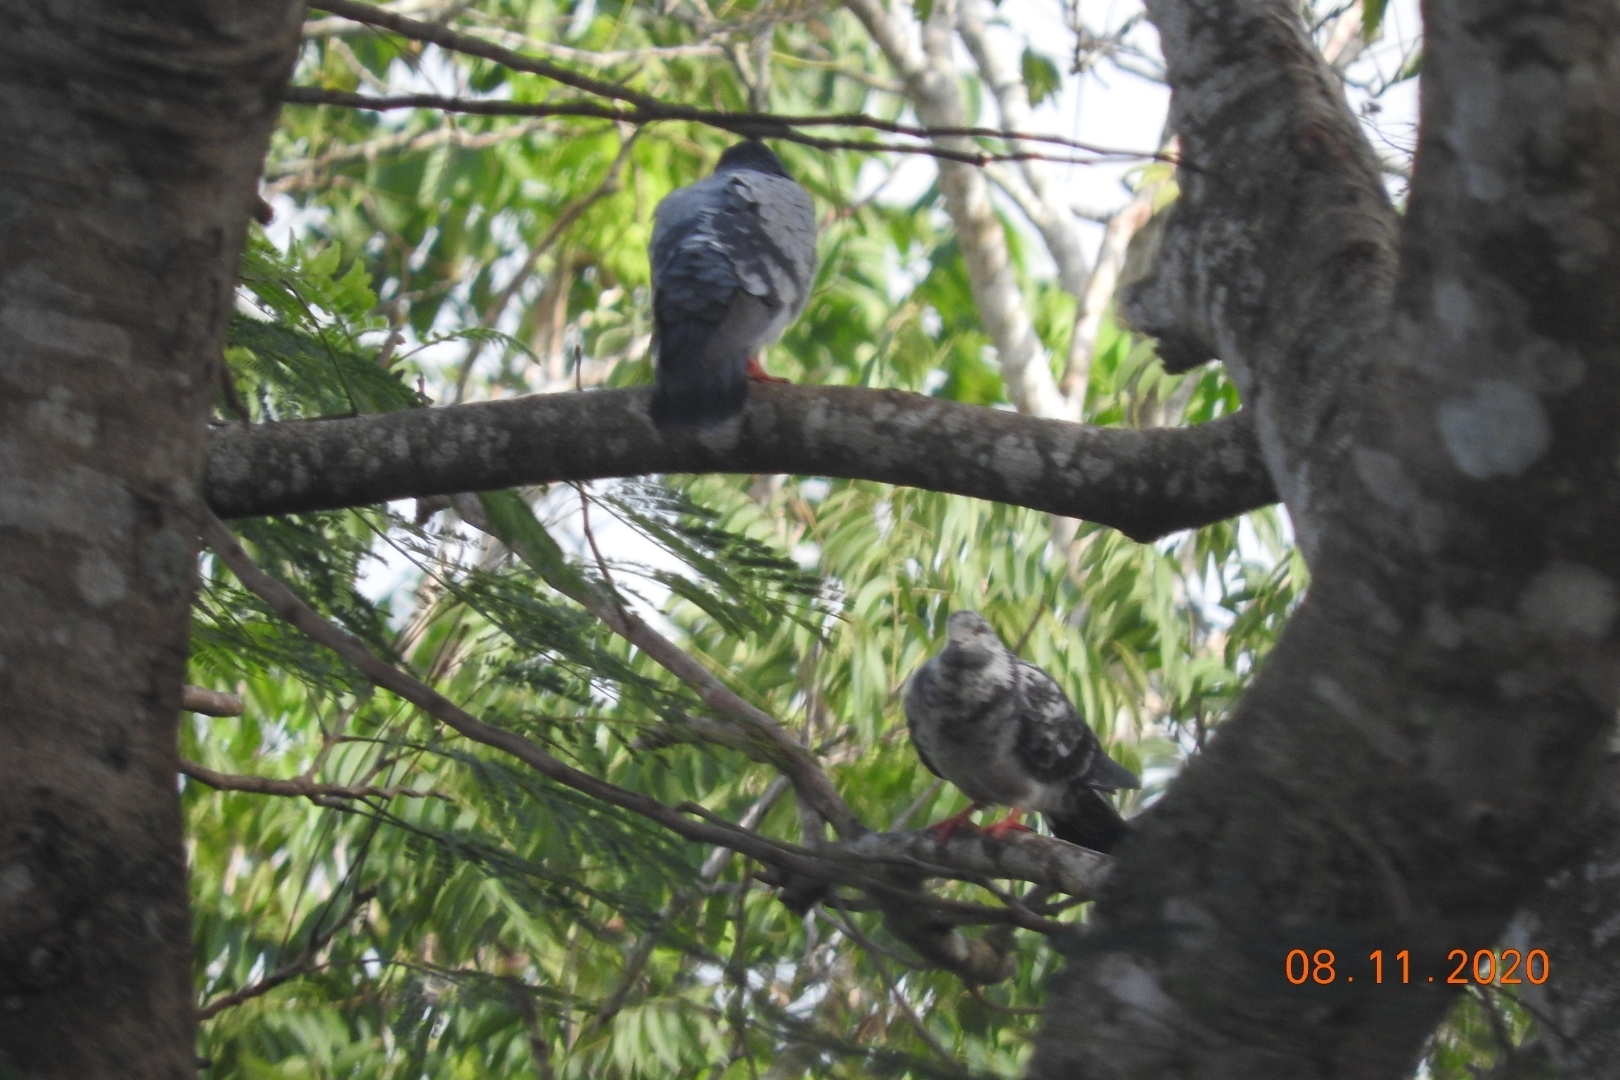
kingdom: Animalia
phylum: Chordata
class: Aves
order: Columbiformes
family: Columbidae
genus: Columba
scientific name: Columba livia
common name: Rock pigeon
